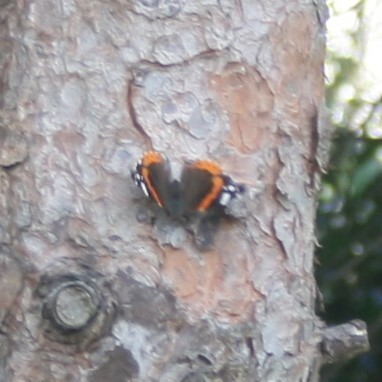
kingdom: Animalia
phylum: Arthropoda
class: Insecta
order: Lepidoptera
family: Nymphalidae
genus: Vanessa
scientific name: Vanessa atalanta
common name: Red admiral
